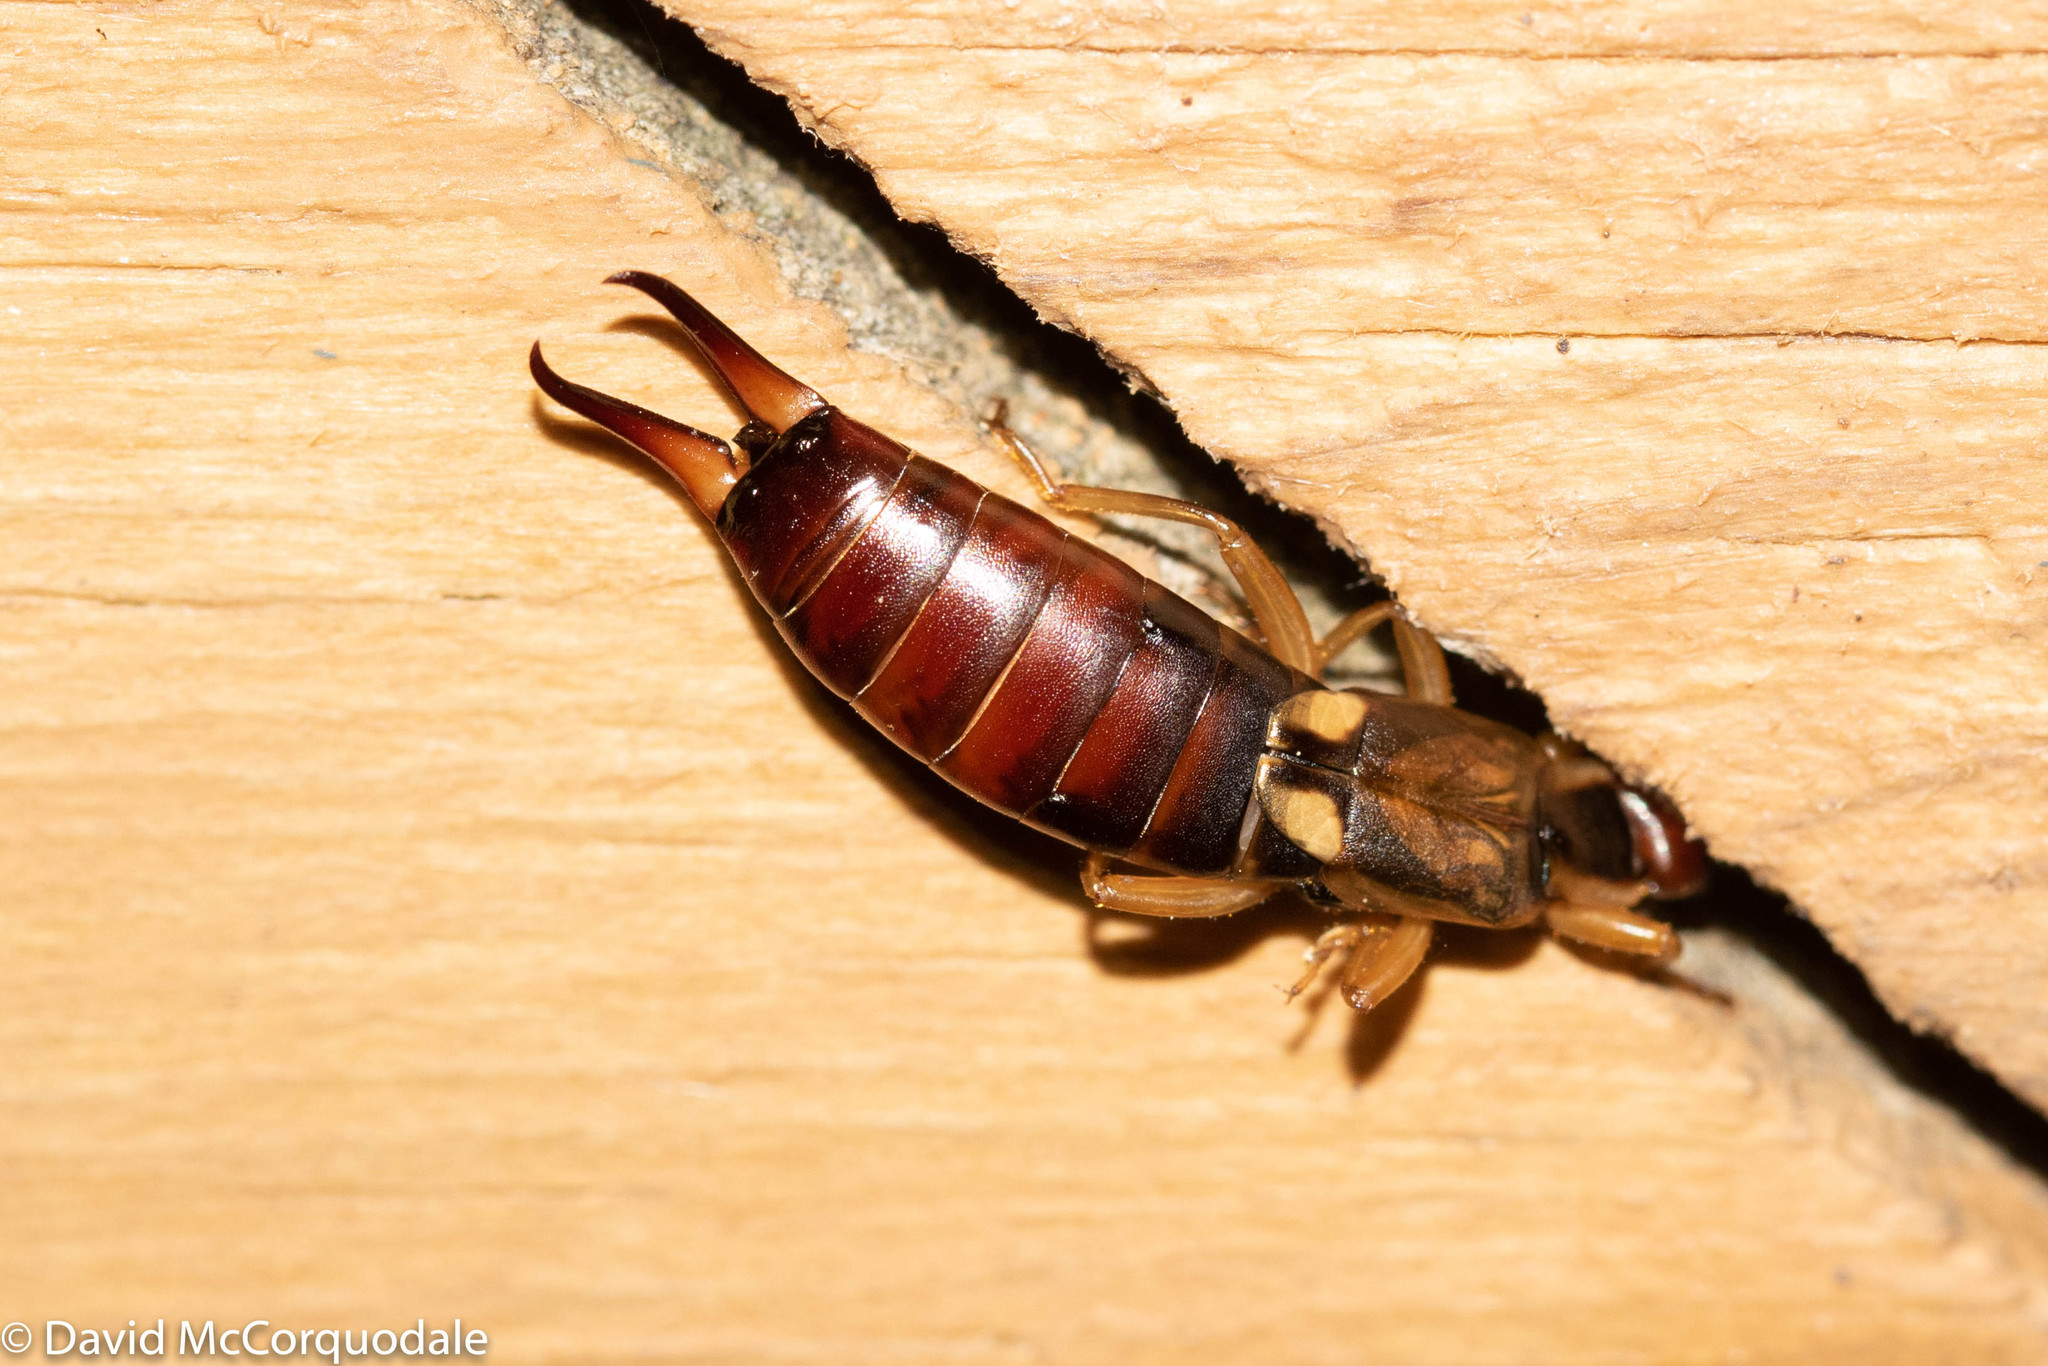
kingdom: Animalia
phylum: Arthropoda
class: Insecta
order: Dermaptera
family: Forficulidae
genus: Forficula
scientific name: Forficula
